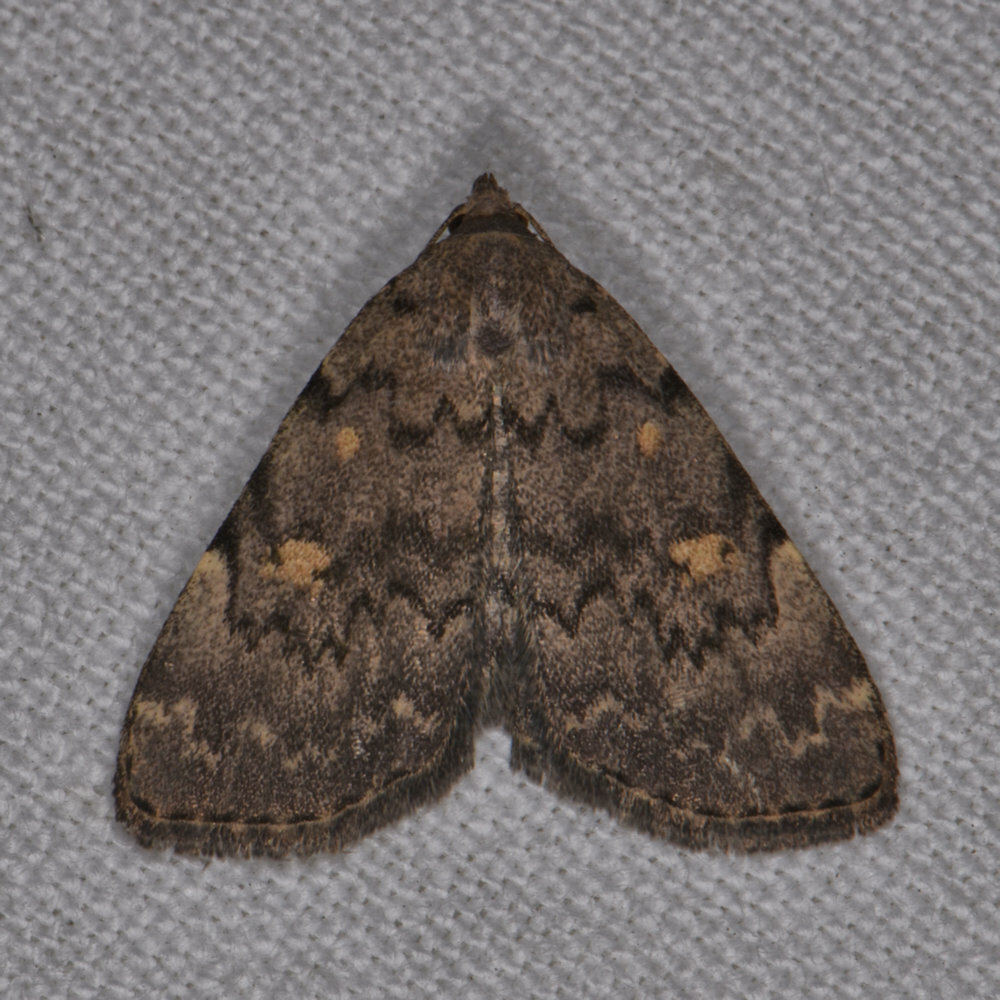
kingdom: Animalia
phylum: Arthropoda
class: Insecta
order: Lepidoptera
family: Erebidae
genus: Idia
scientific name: Idia aemula
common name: Common idia moth
